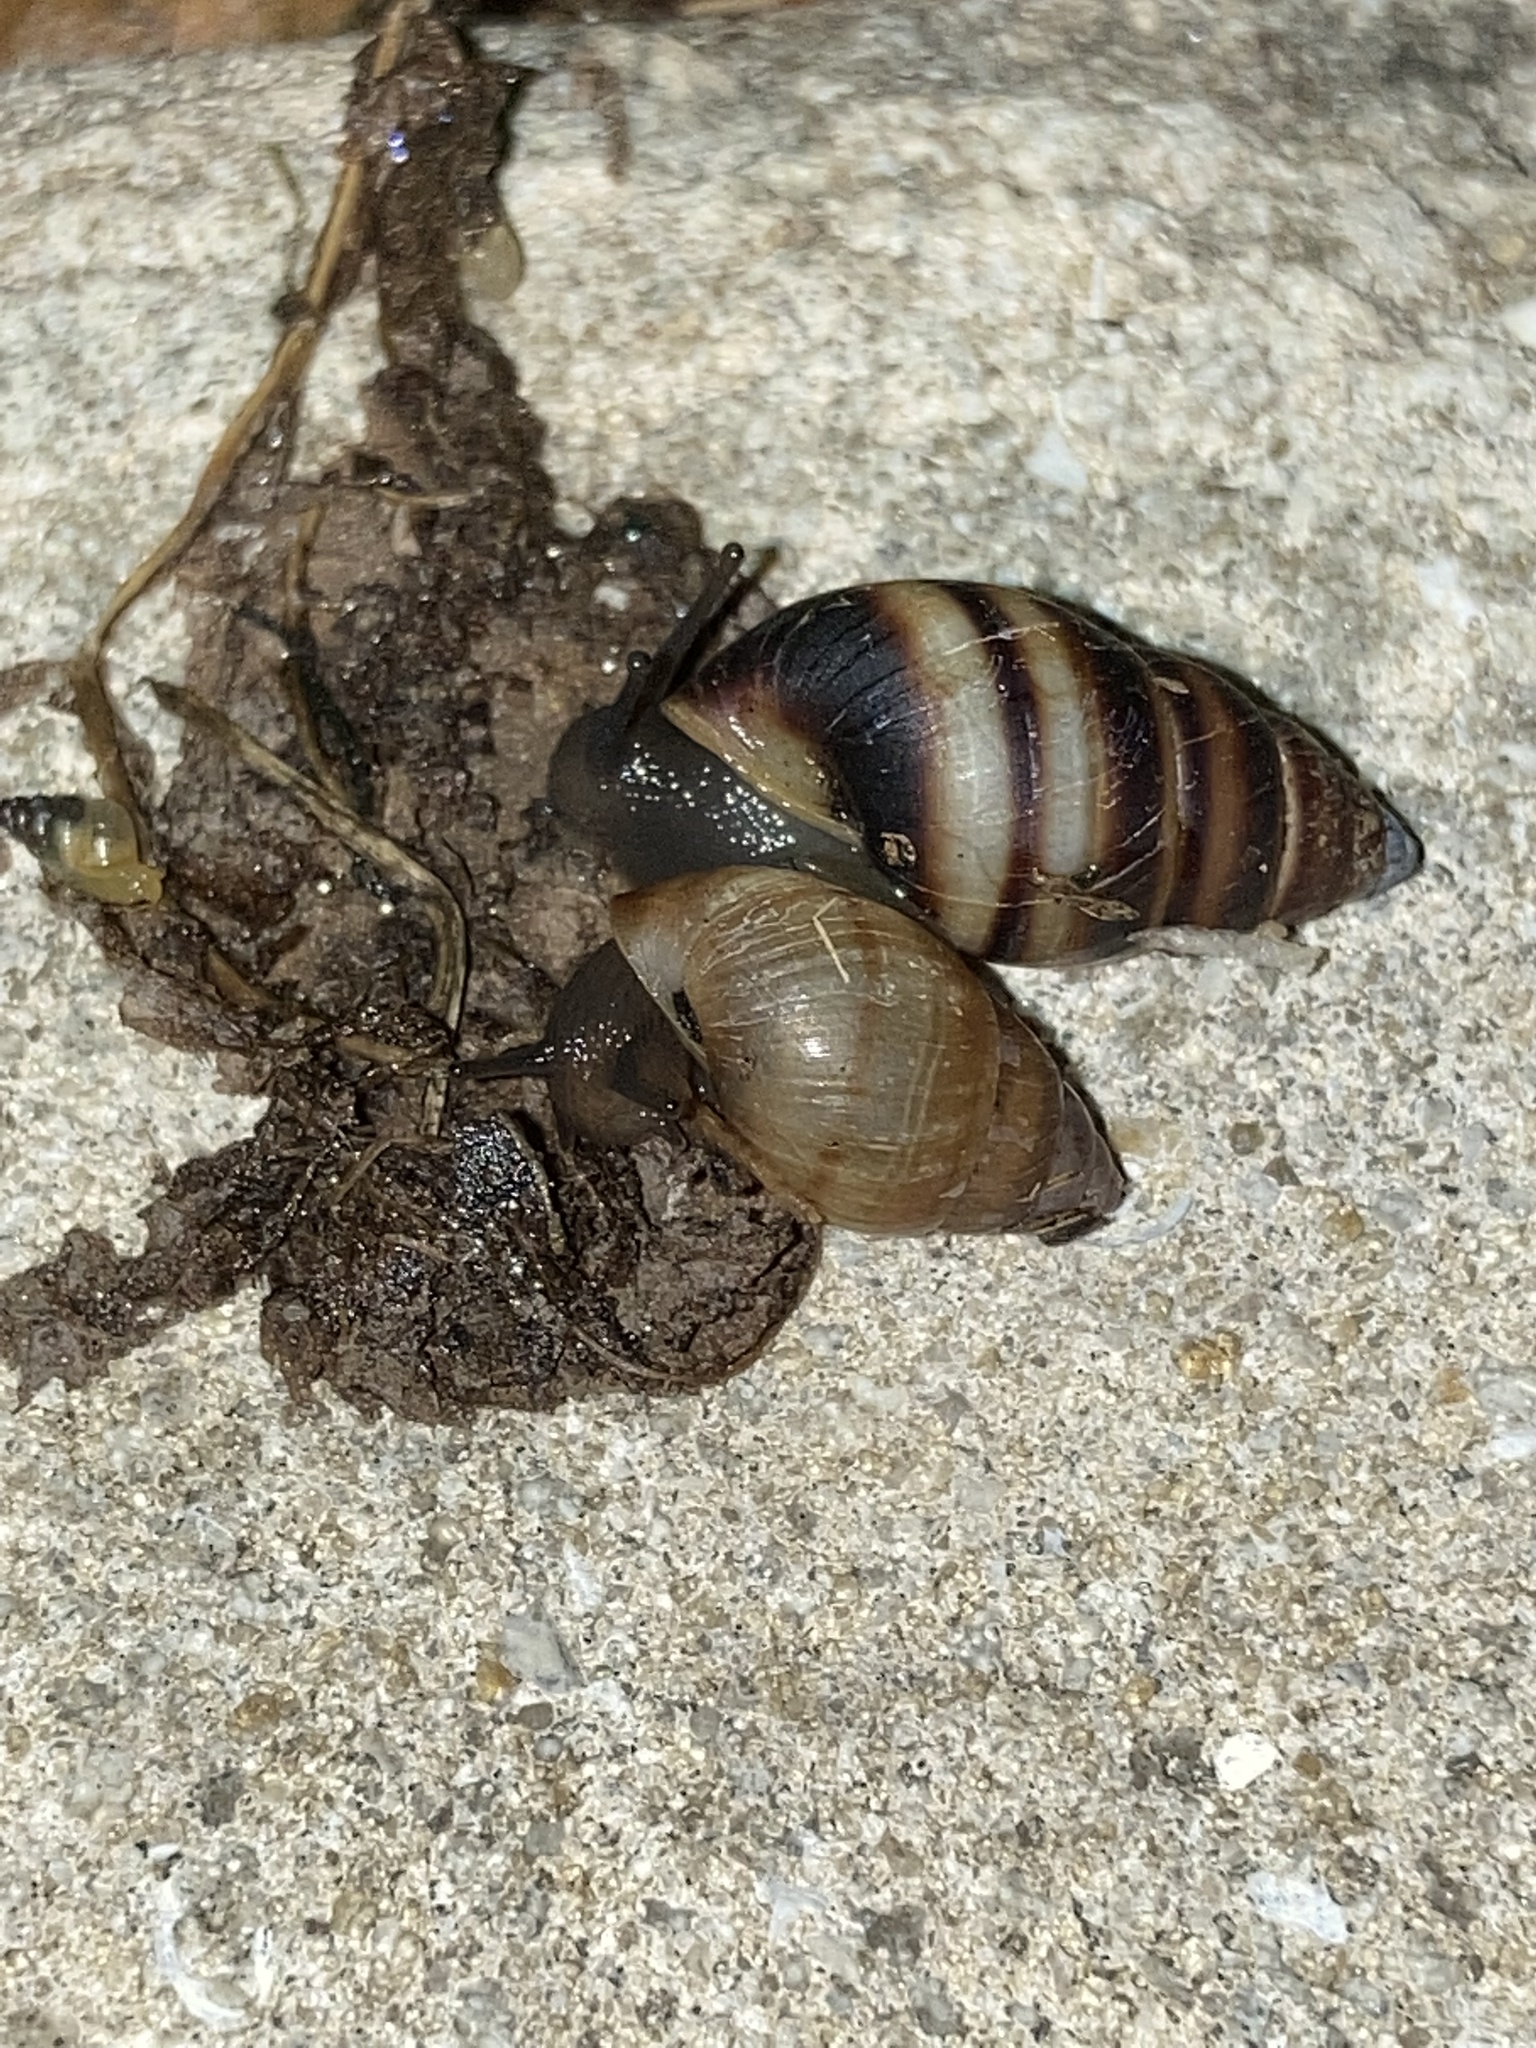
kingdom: Animalia
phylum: Mollusca
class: Gastropoda
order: Stylommatophora
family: Bulimulidae
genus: Bulimulus
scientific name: Bulimulus guadalupensis
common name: West indian bulimulus
